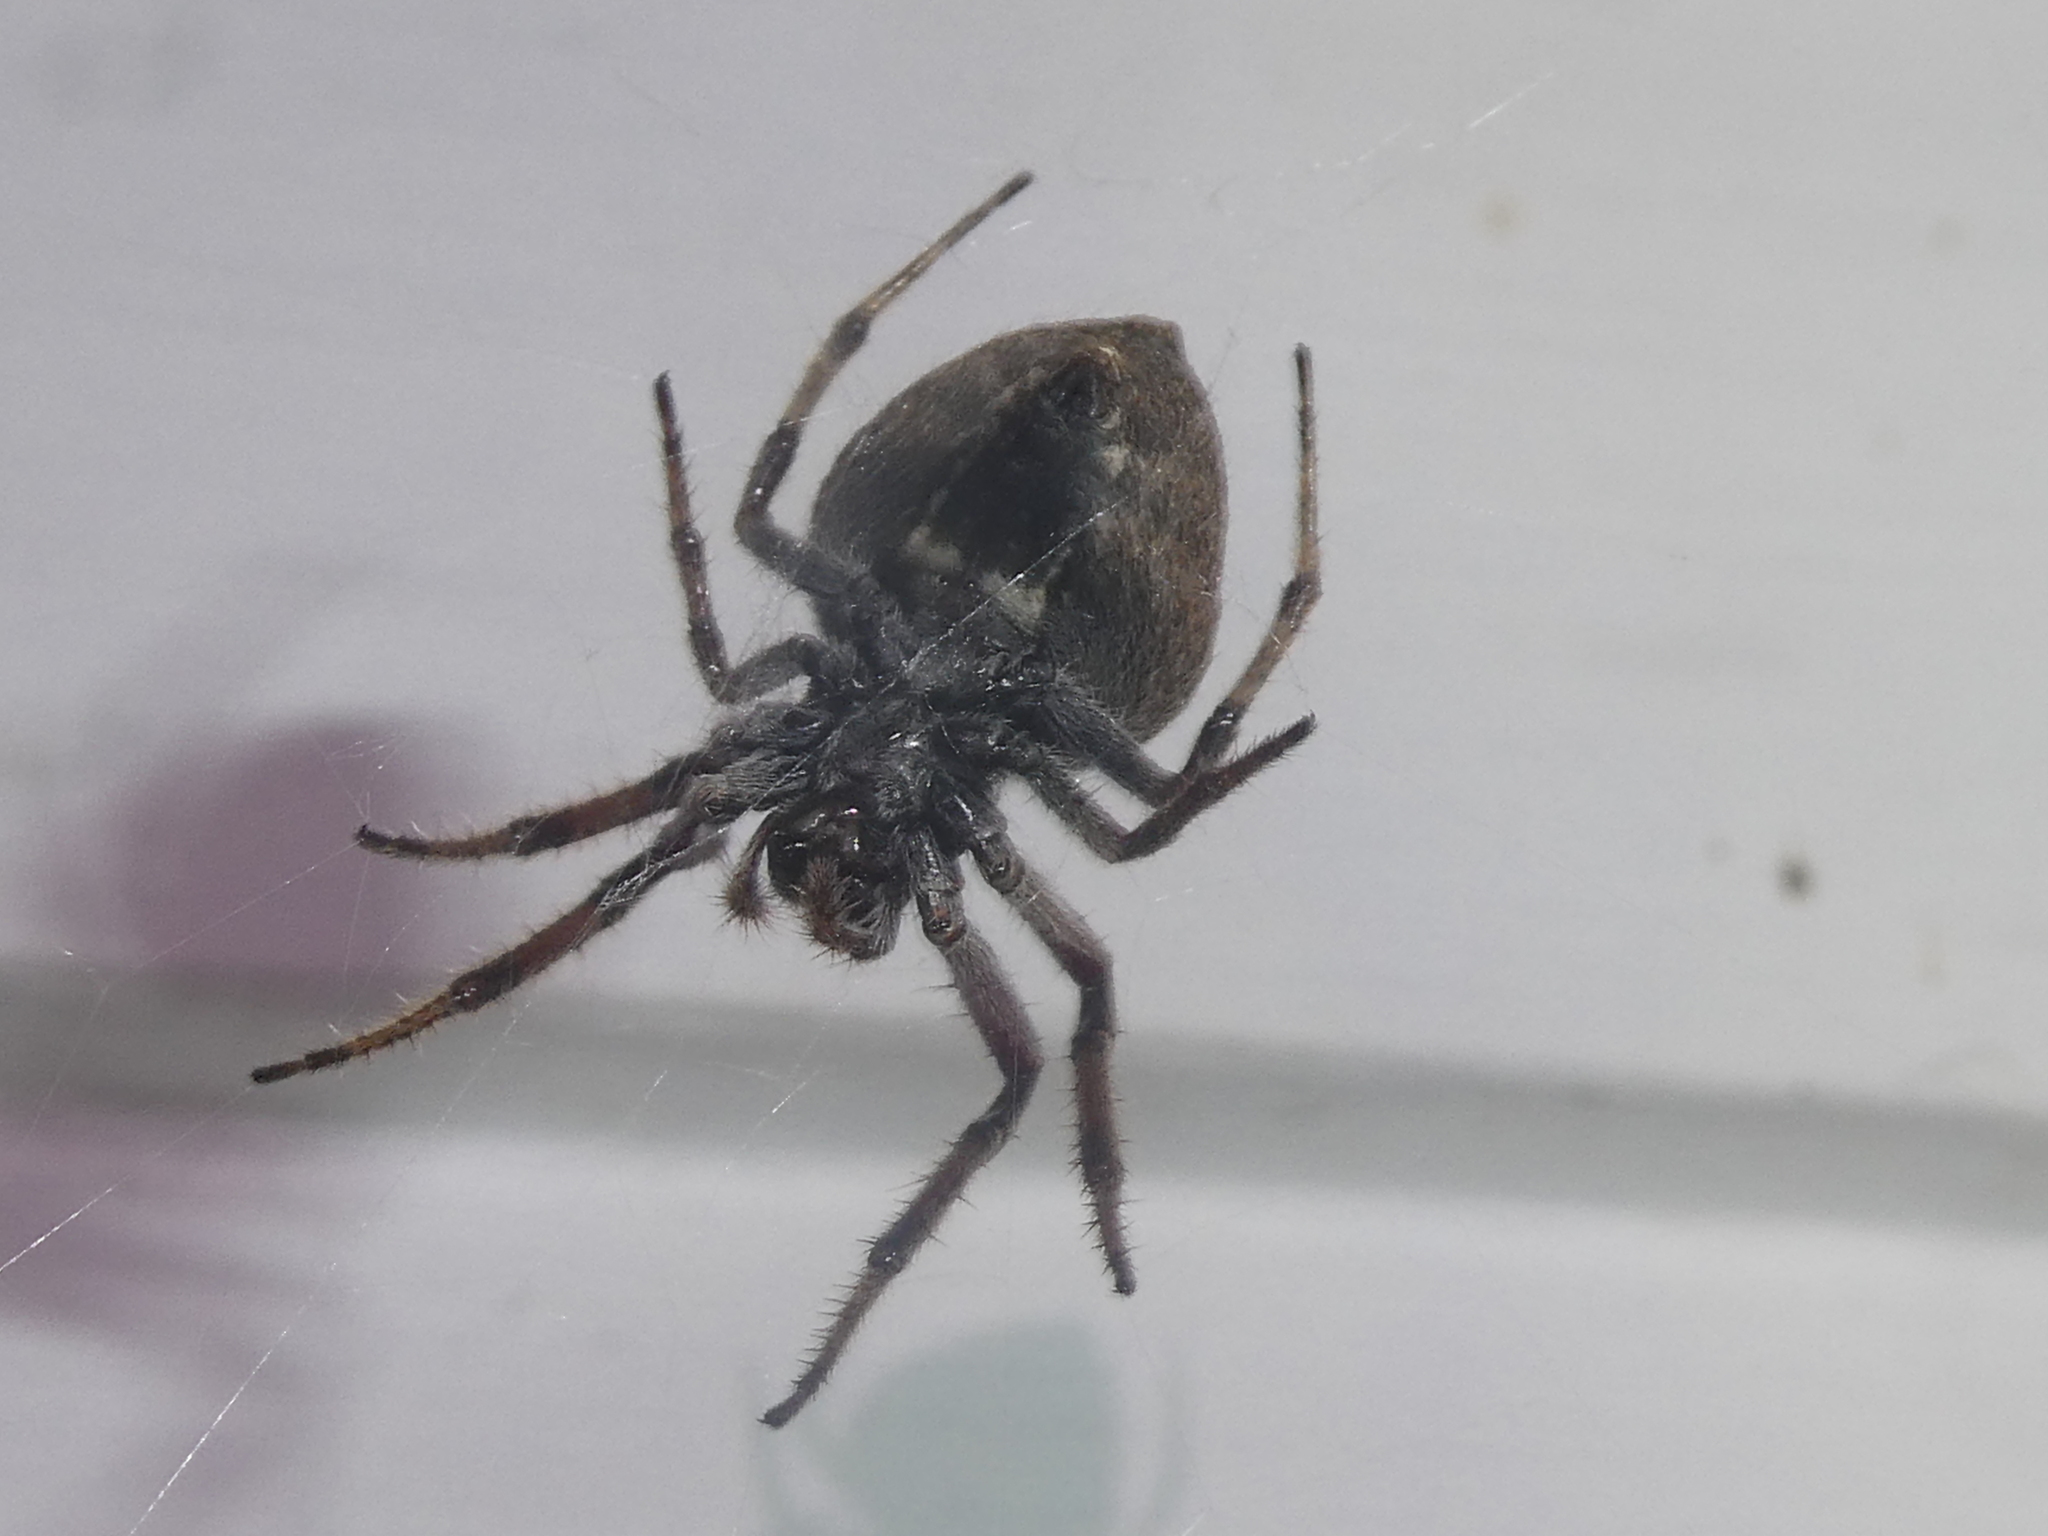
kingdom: Animalia
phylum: Arthropoda
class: Arachnida
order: Araneae
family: Araneidae
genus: Eriophora
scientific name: Eriophora pustulosa
